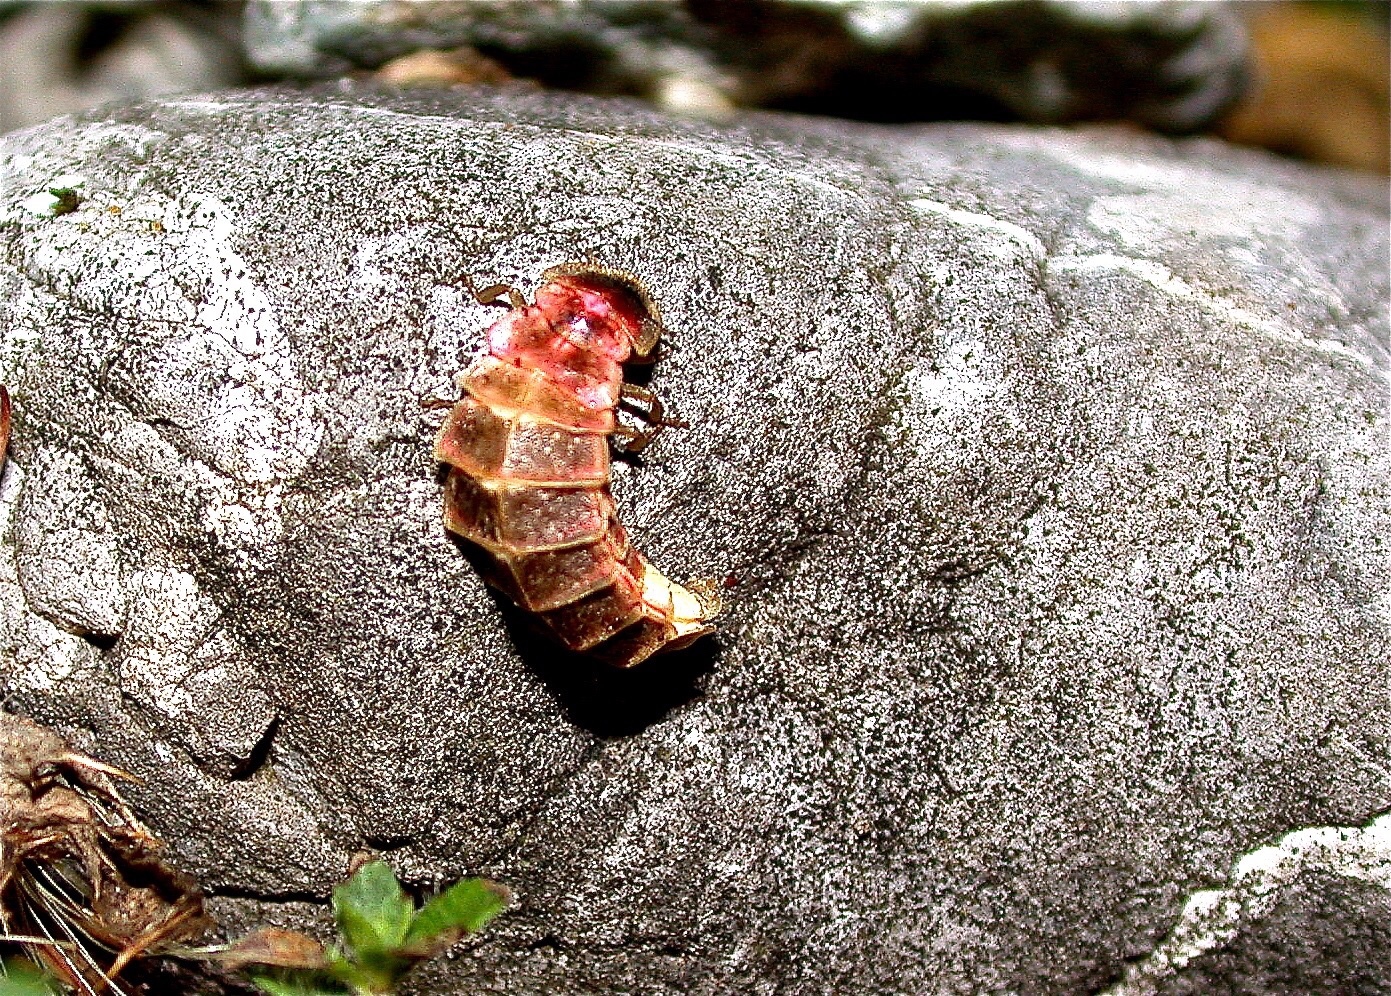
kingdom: Animalia
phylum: Arthropoda
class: Insecta
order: Coleoptera
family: Lampyridae
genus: Lampyris
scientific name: Lampyris noctiluca
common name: Glow-worm
